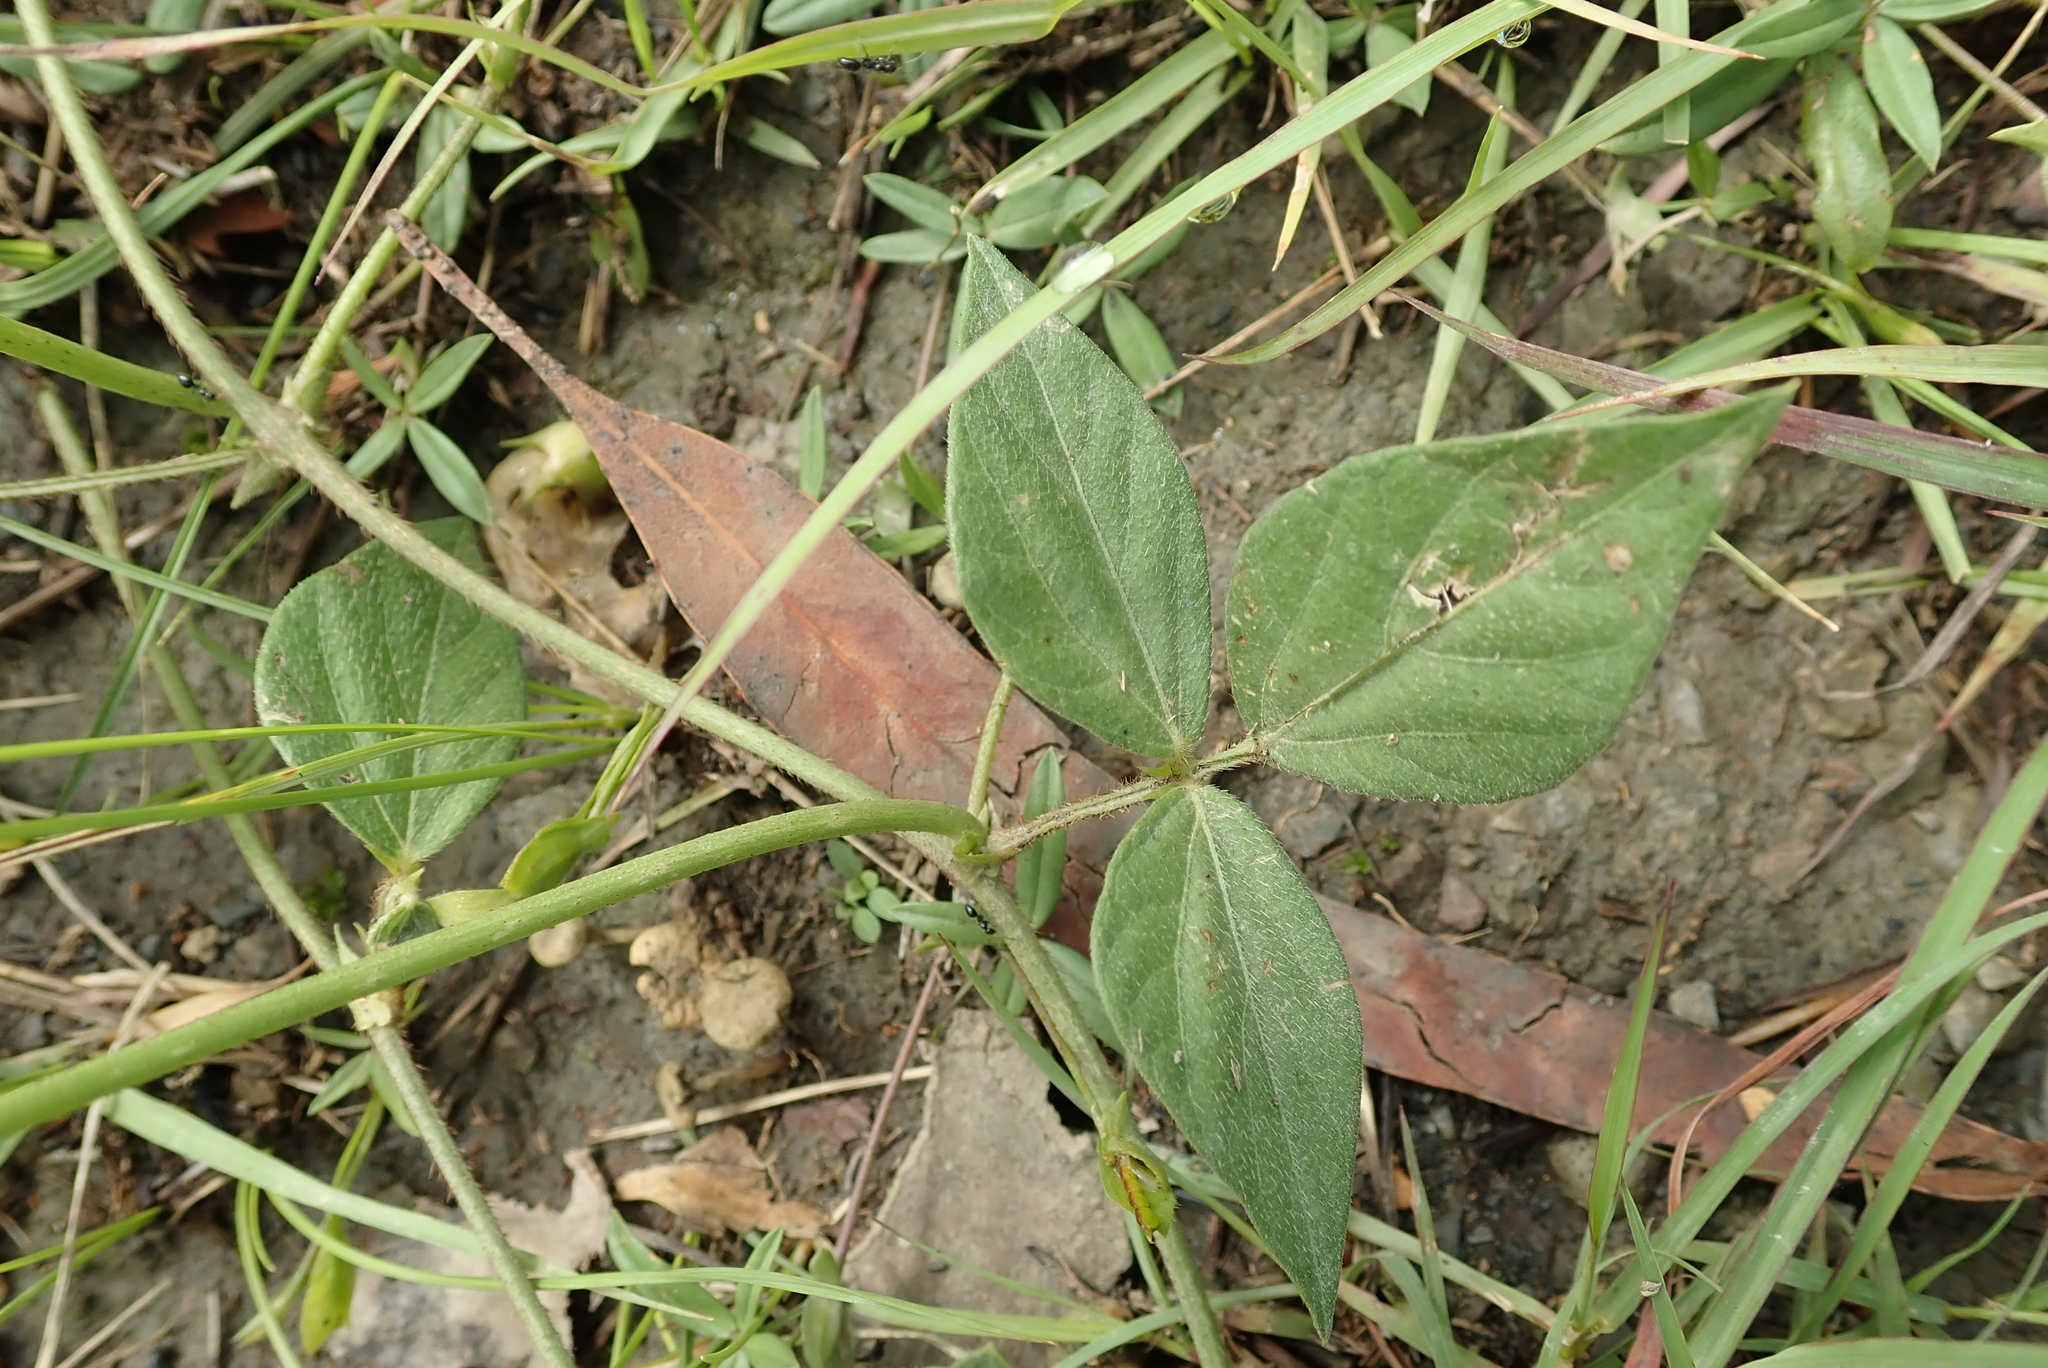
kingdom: Plantae
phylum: Tracheophyta
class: Magnoliopsida
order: Fabales
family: Fabaceae
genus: Vigna
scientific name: Vigna vexillata
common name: Zombi pea
